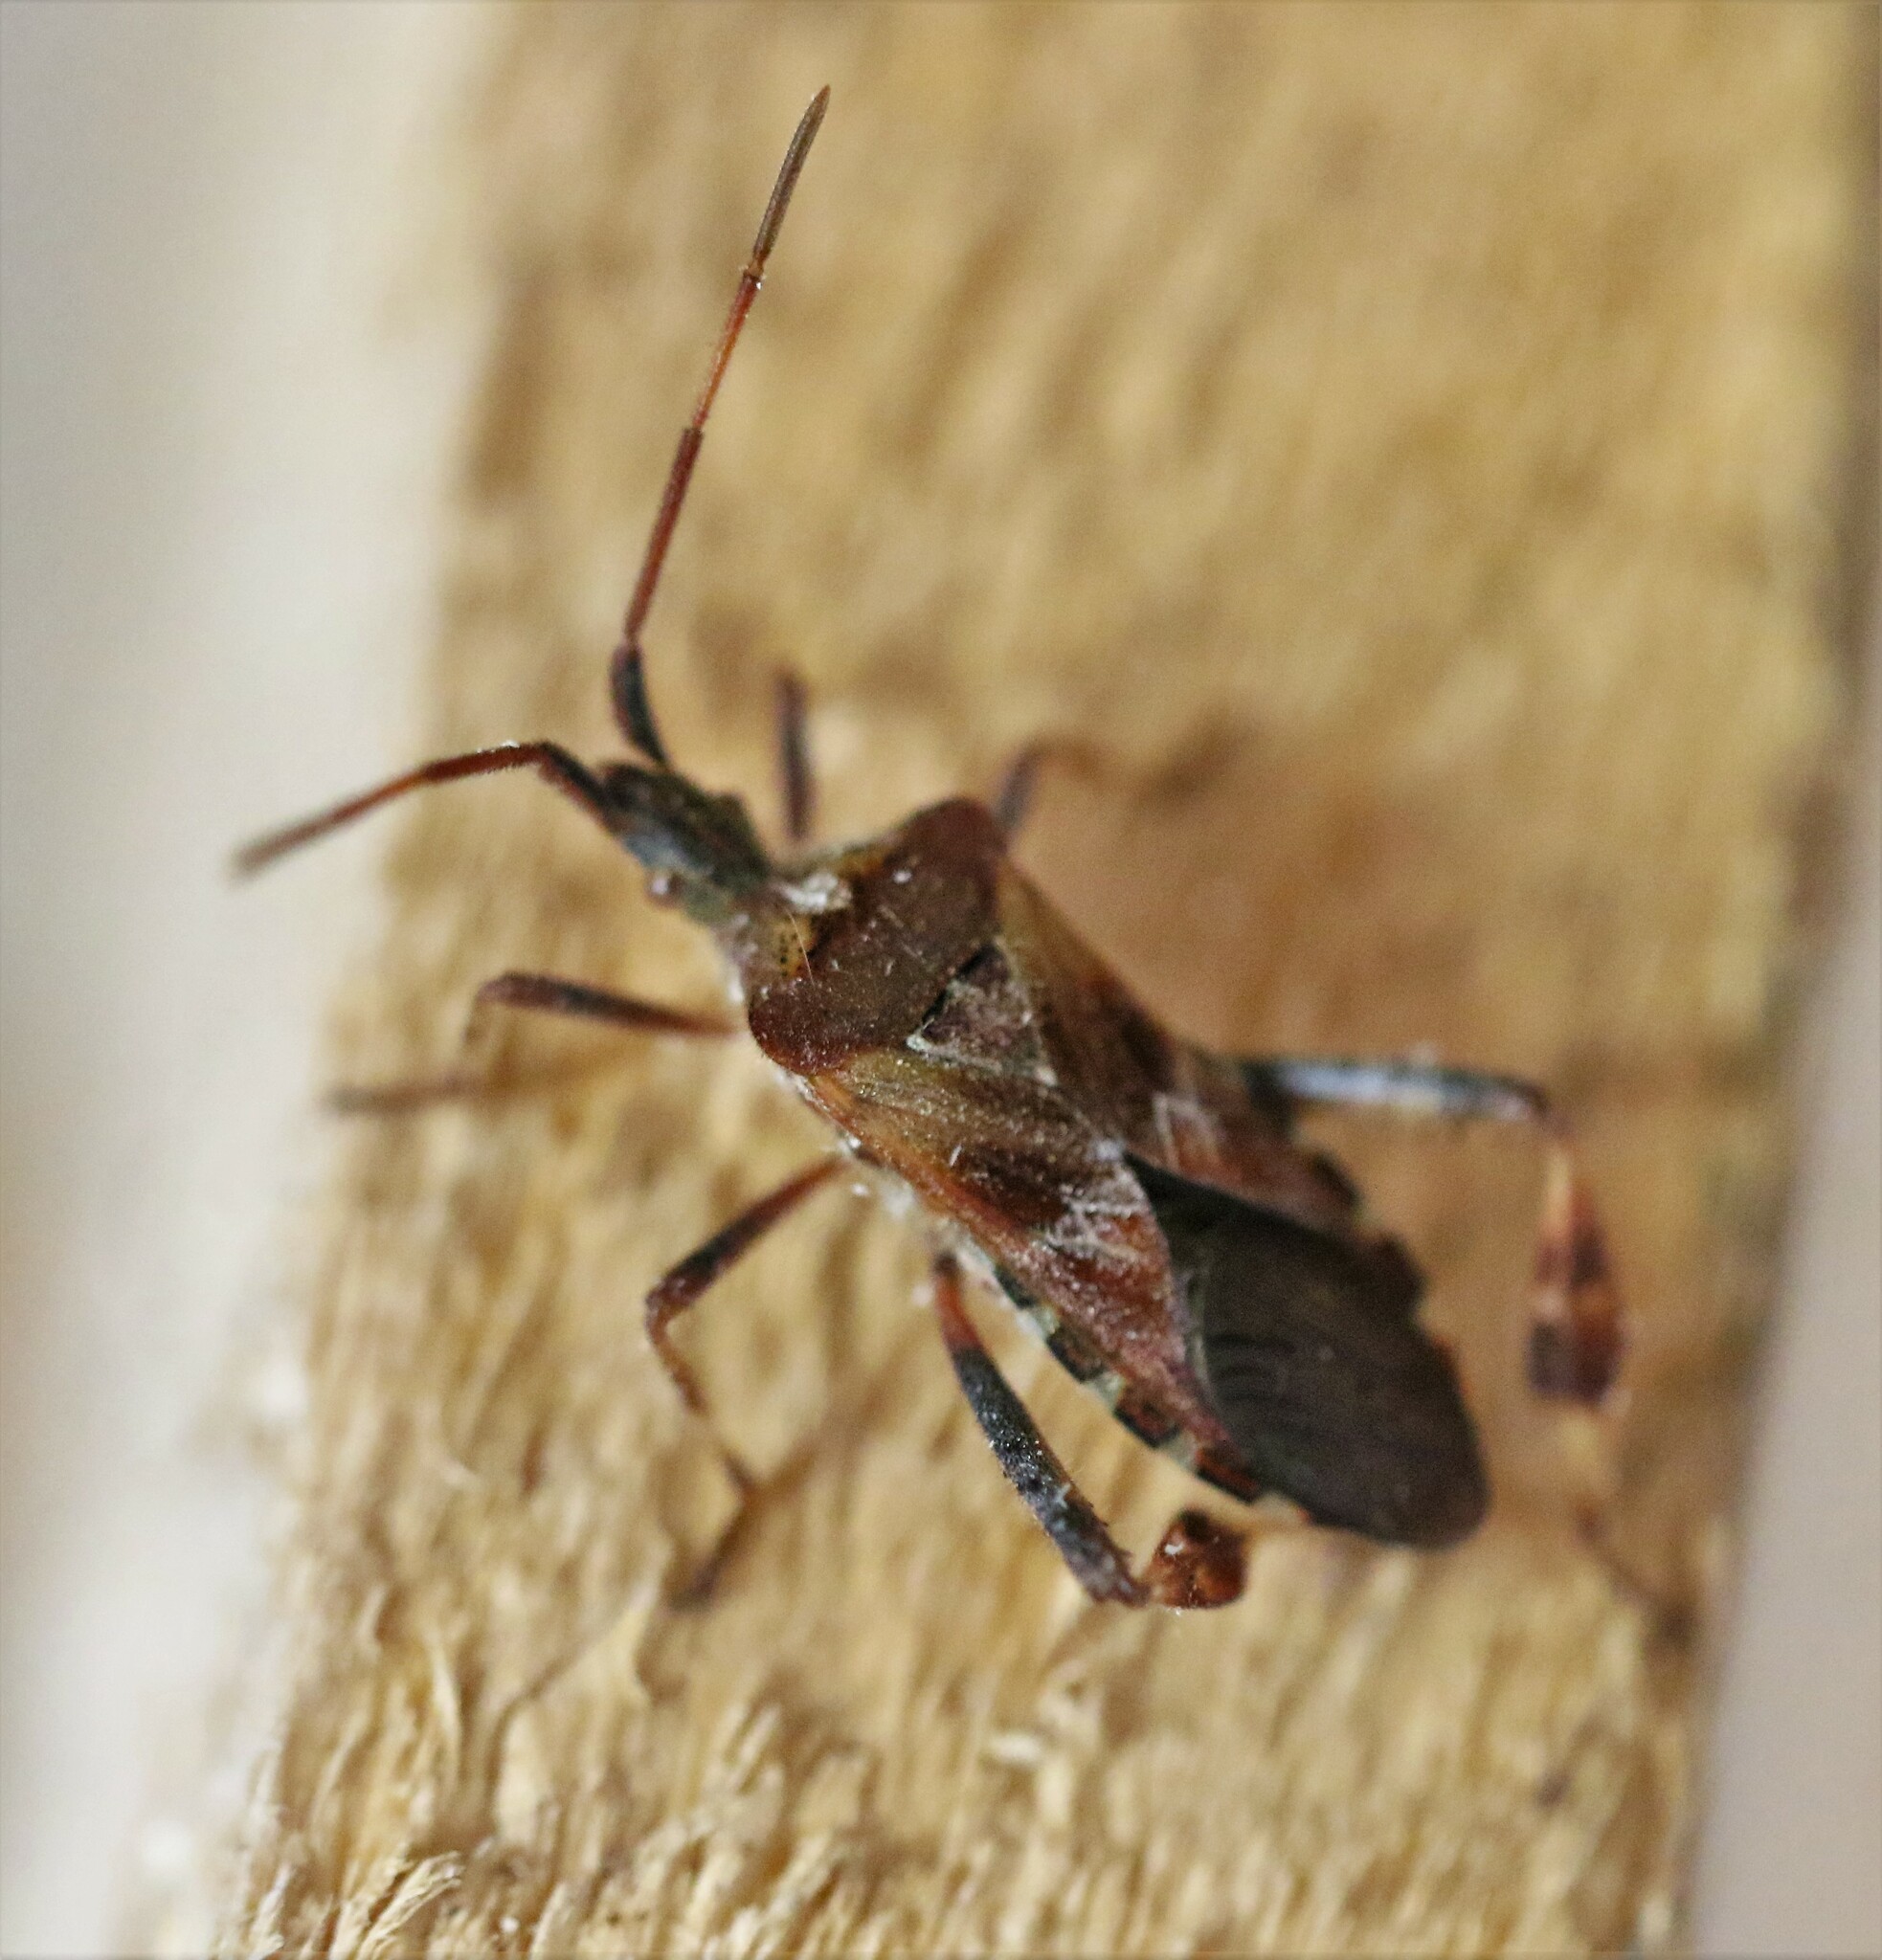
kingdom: Animalia
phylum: Arthropoda
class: Insecta
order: Hemiptera
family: Coreidae
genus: Leptoglossus
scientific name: Leptoglossus occidentalis
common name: Western conifer-seed bug
